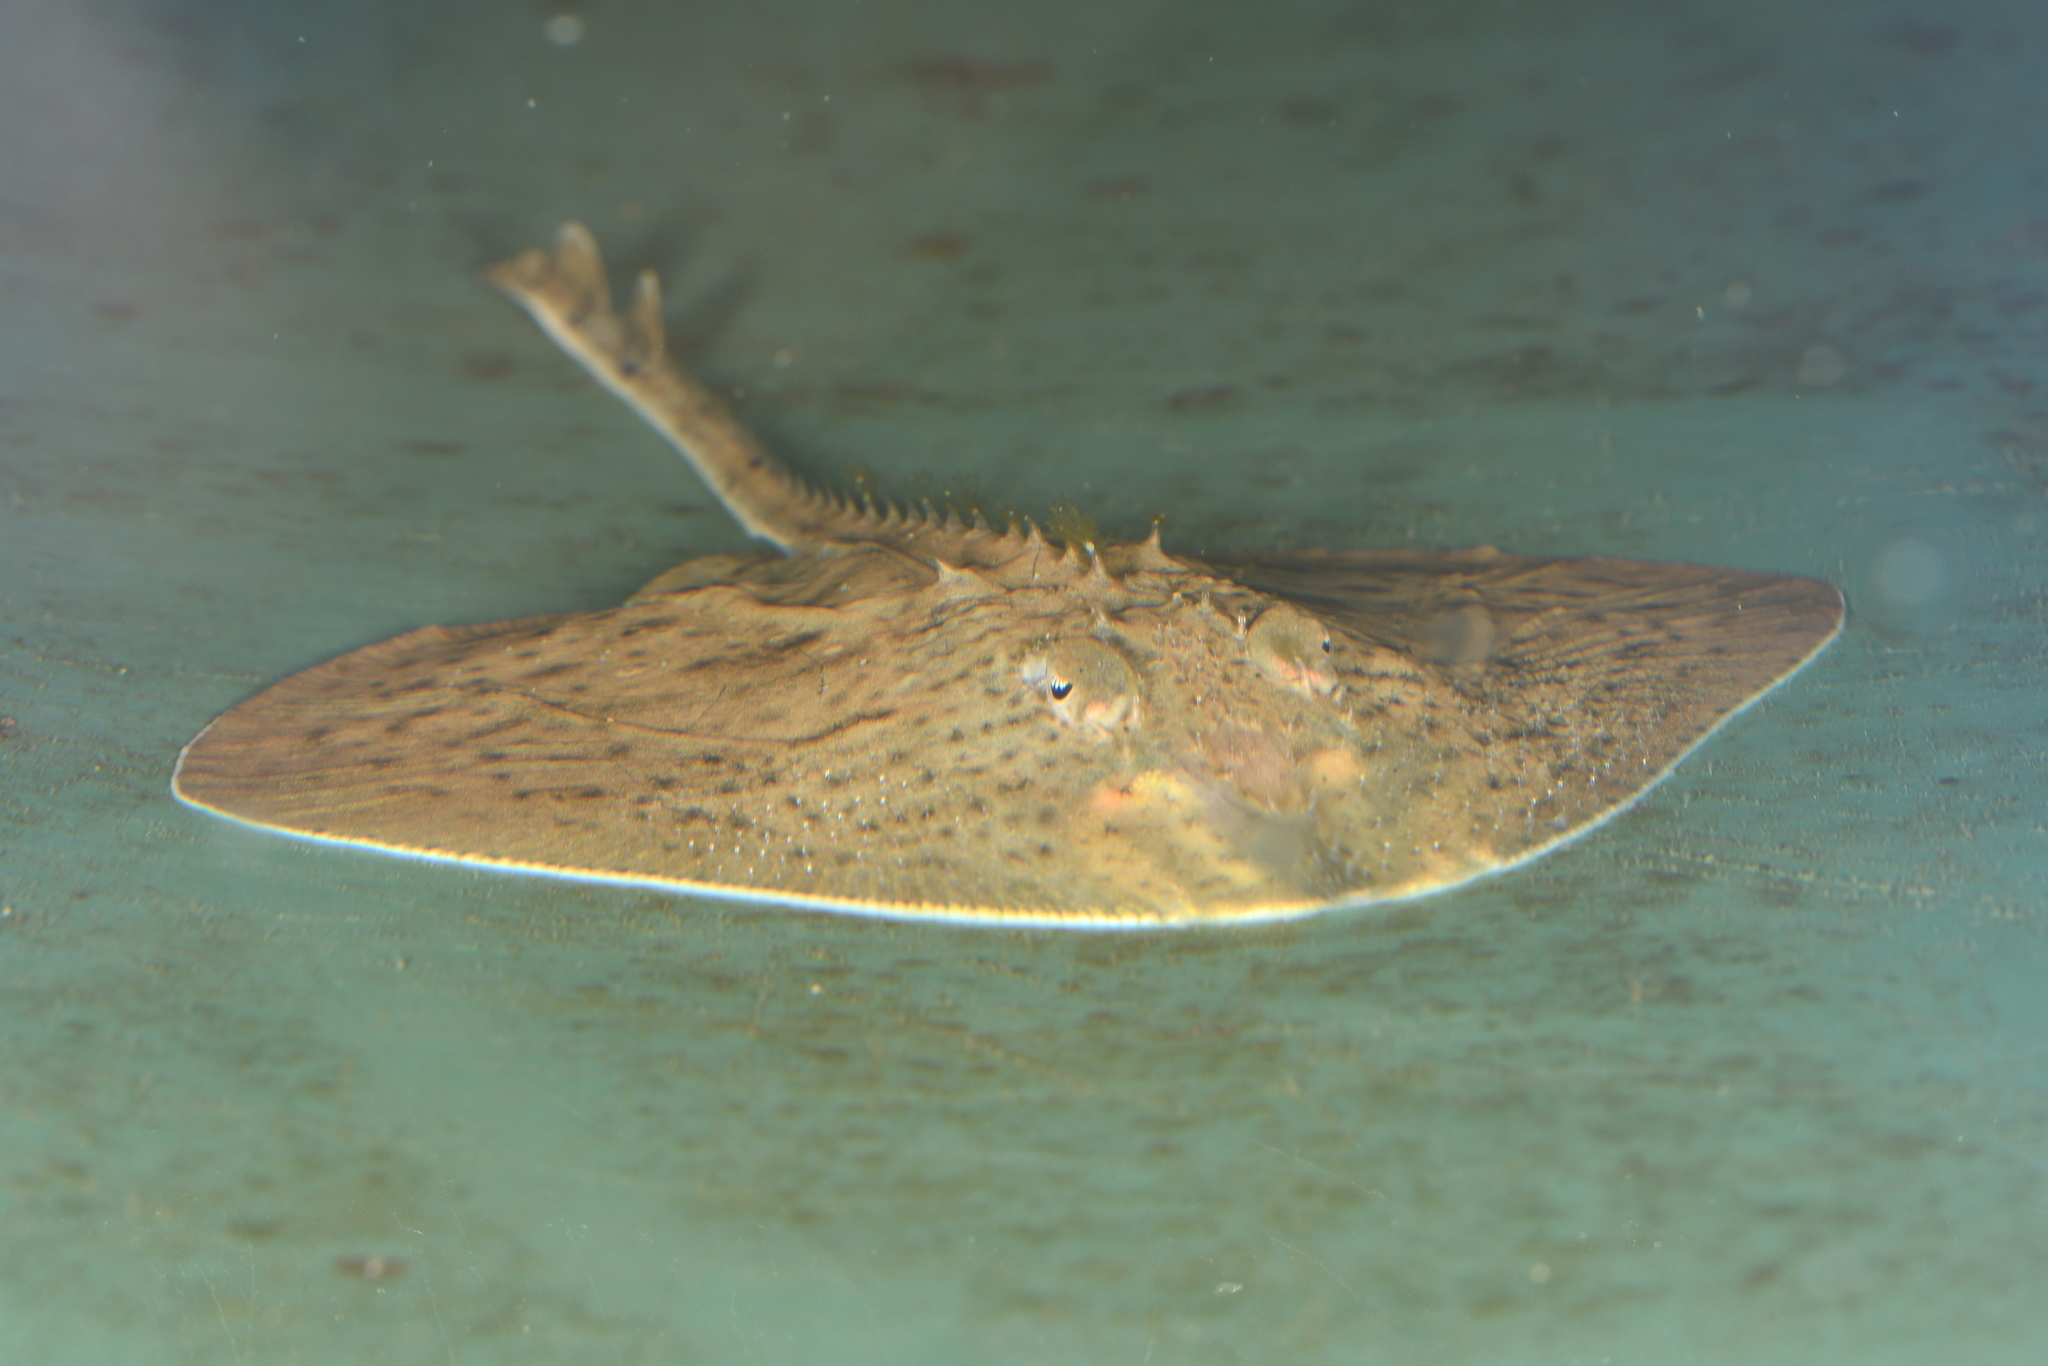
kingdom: Animalia
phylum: Chordata
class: Elasmobranchii
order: Rajiformes
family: Rajidae
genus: Raja
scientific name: Raja asterias
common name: Starry ray
